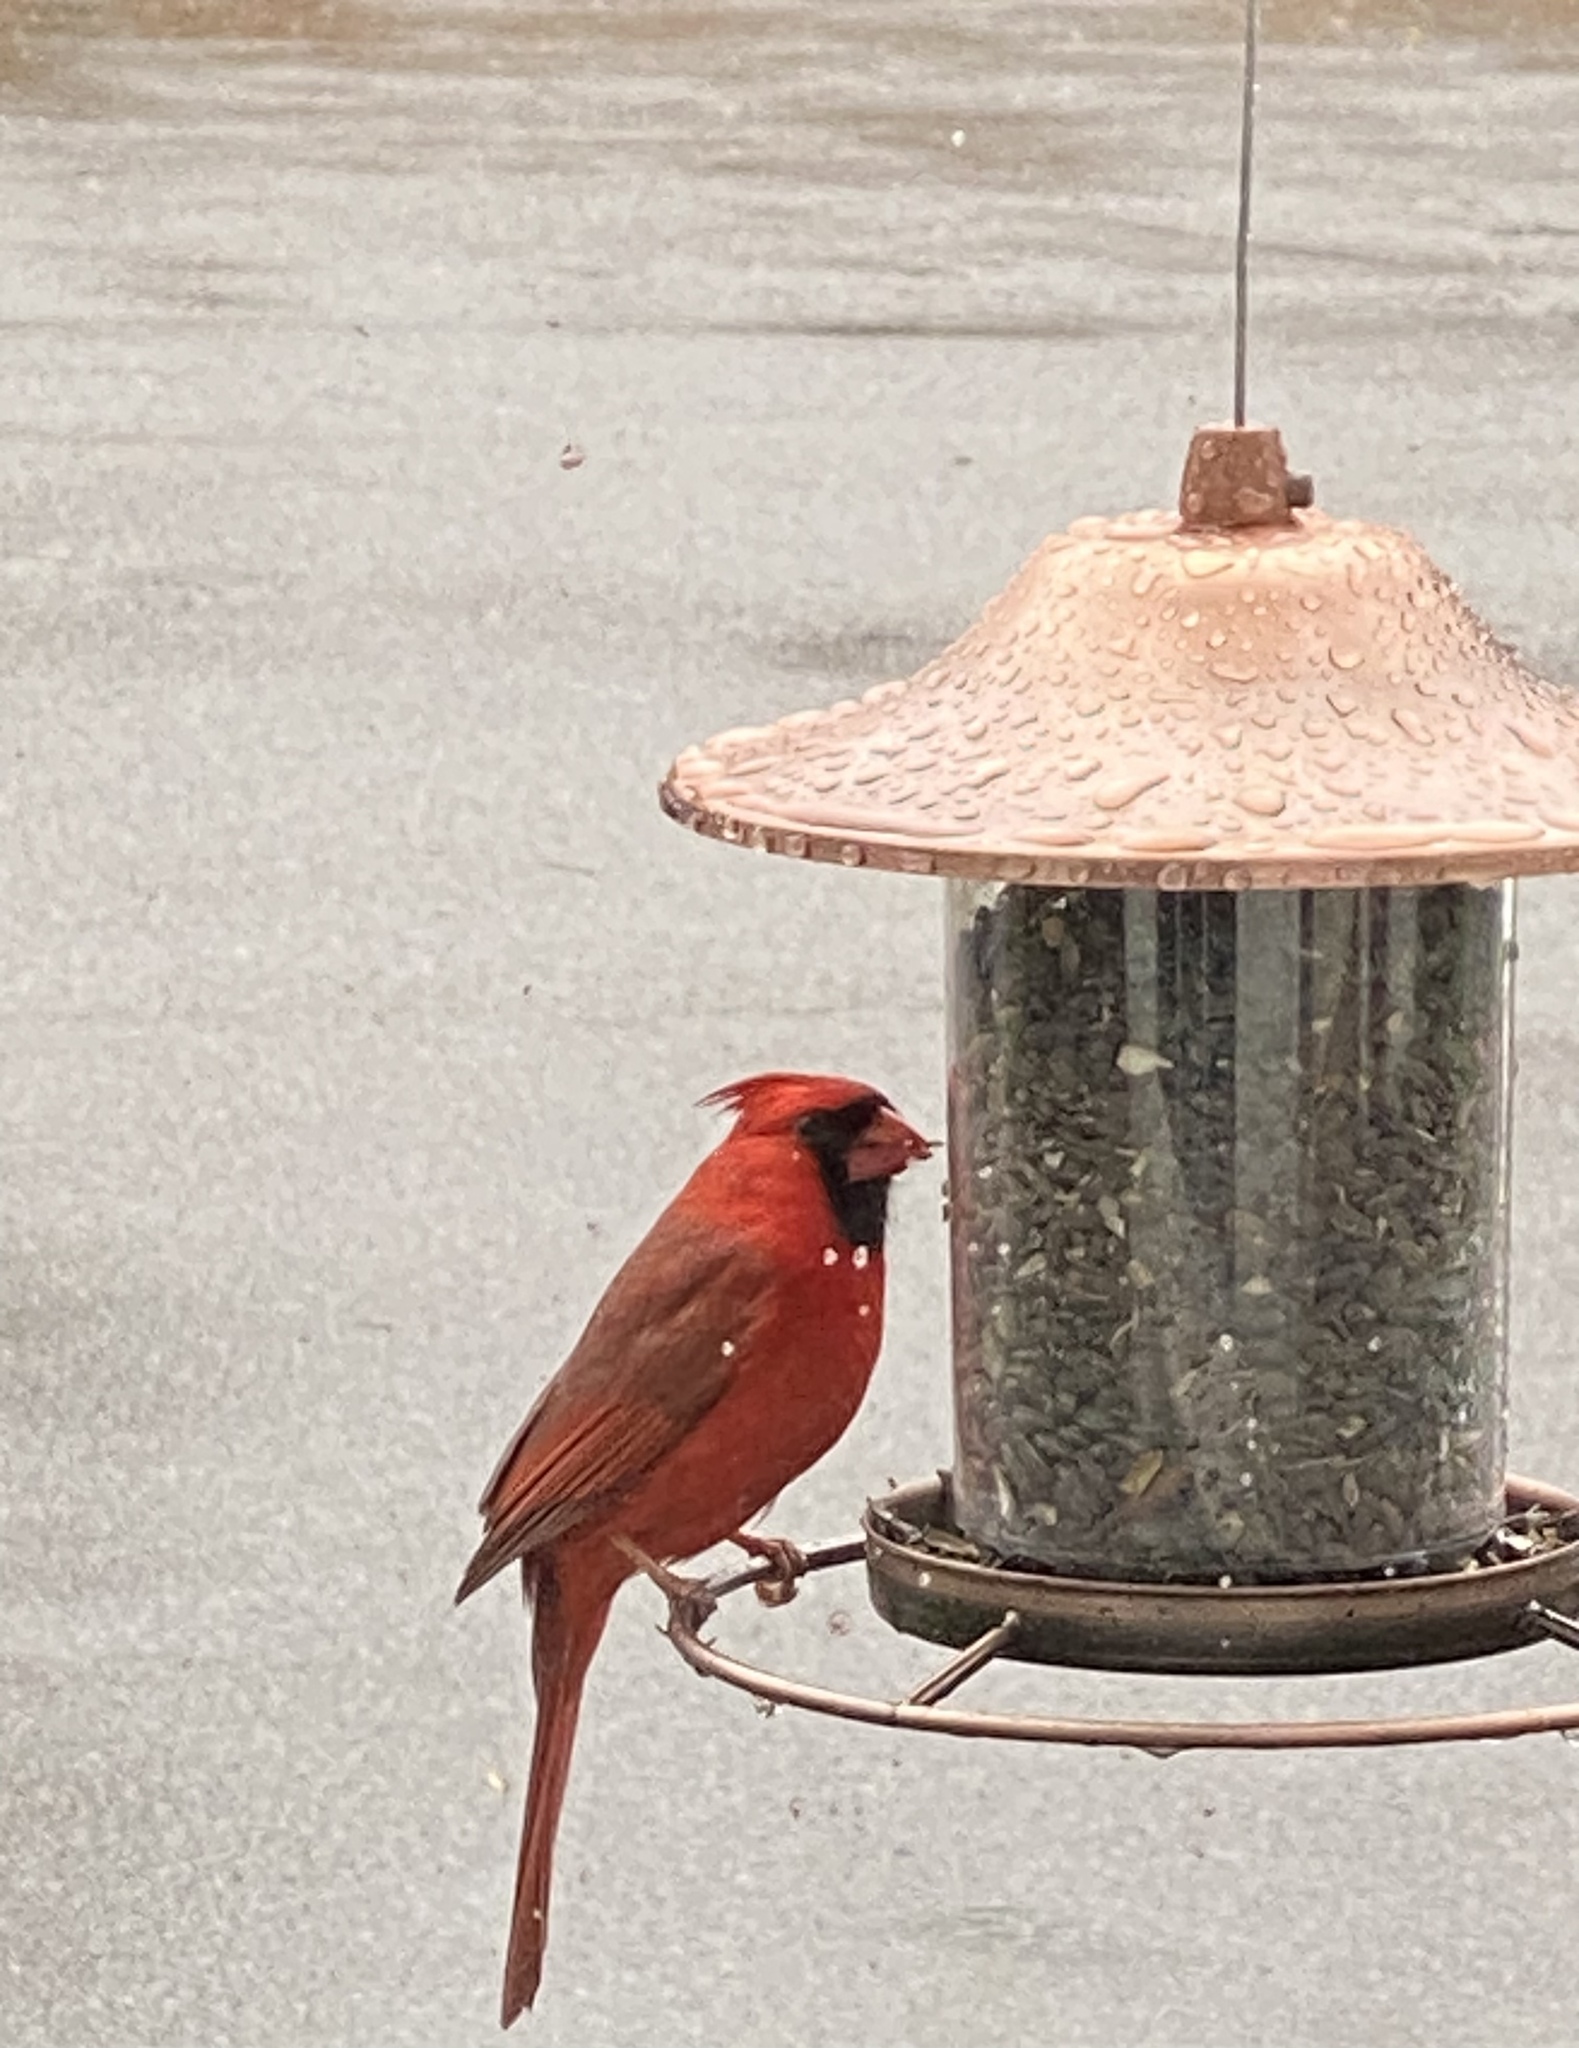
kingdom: Animalia
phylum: Chordata
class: Aves
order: Passeriformes
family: Cardinalidae
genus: Cardinalis
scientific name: Cardinalis cardinalis
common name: Northern cardinal
